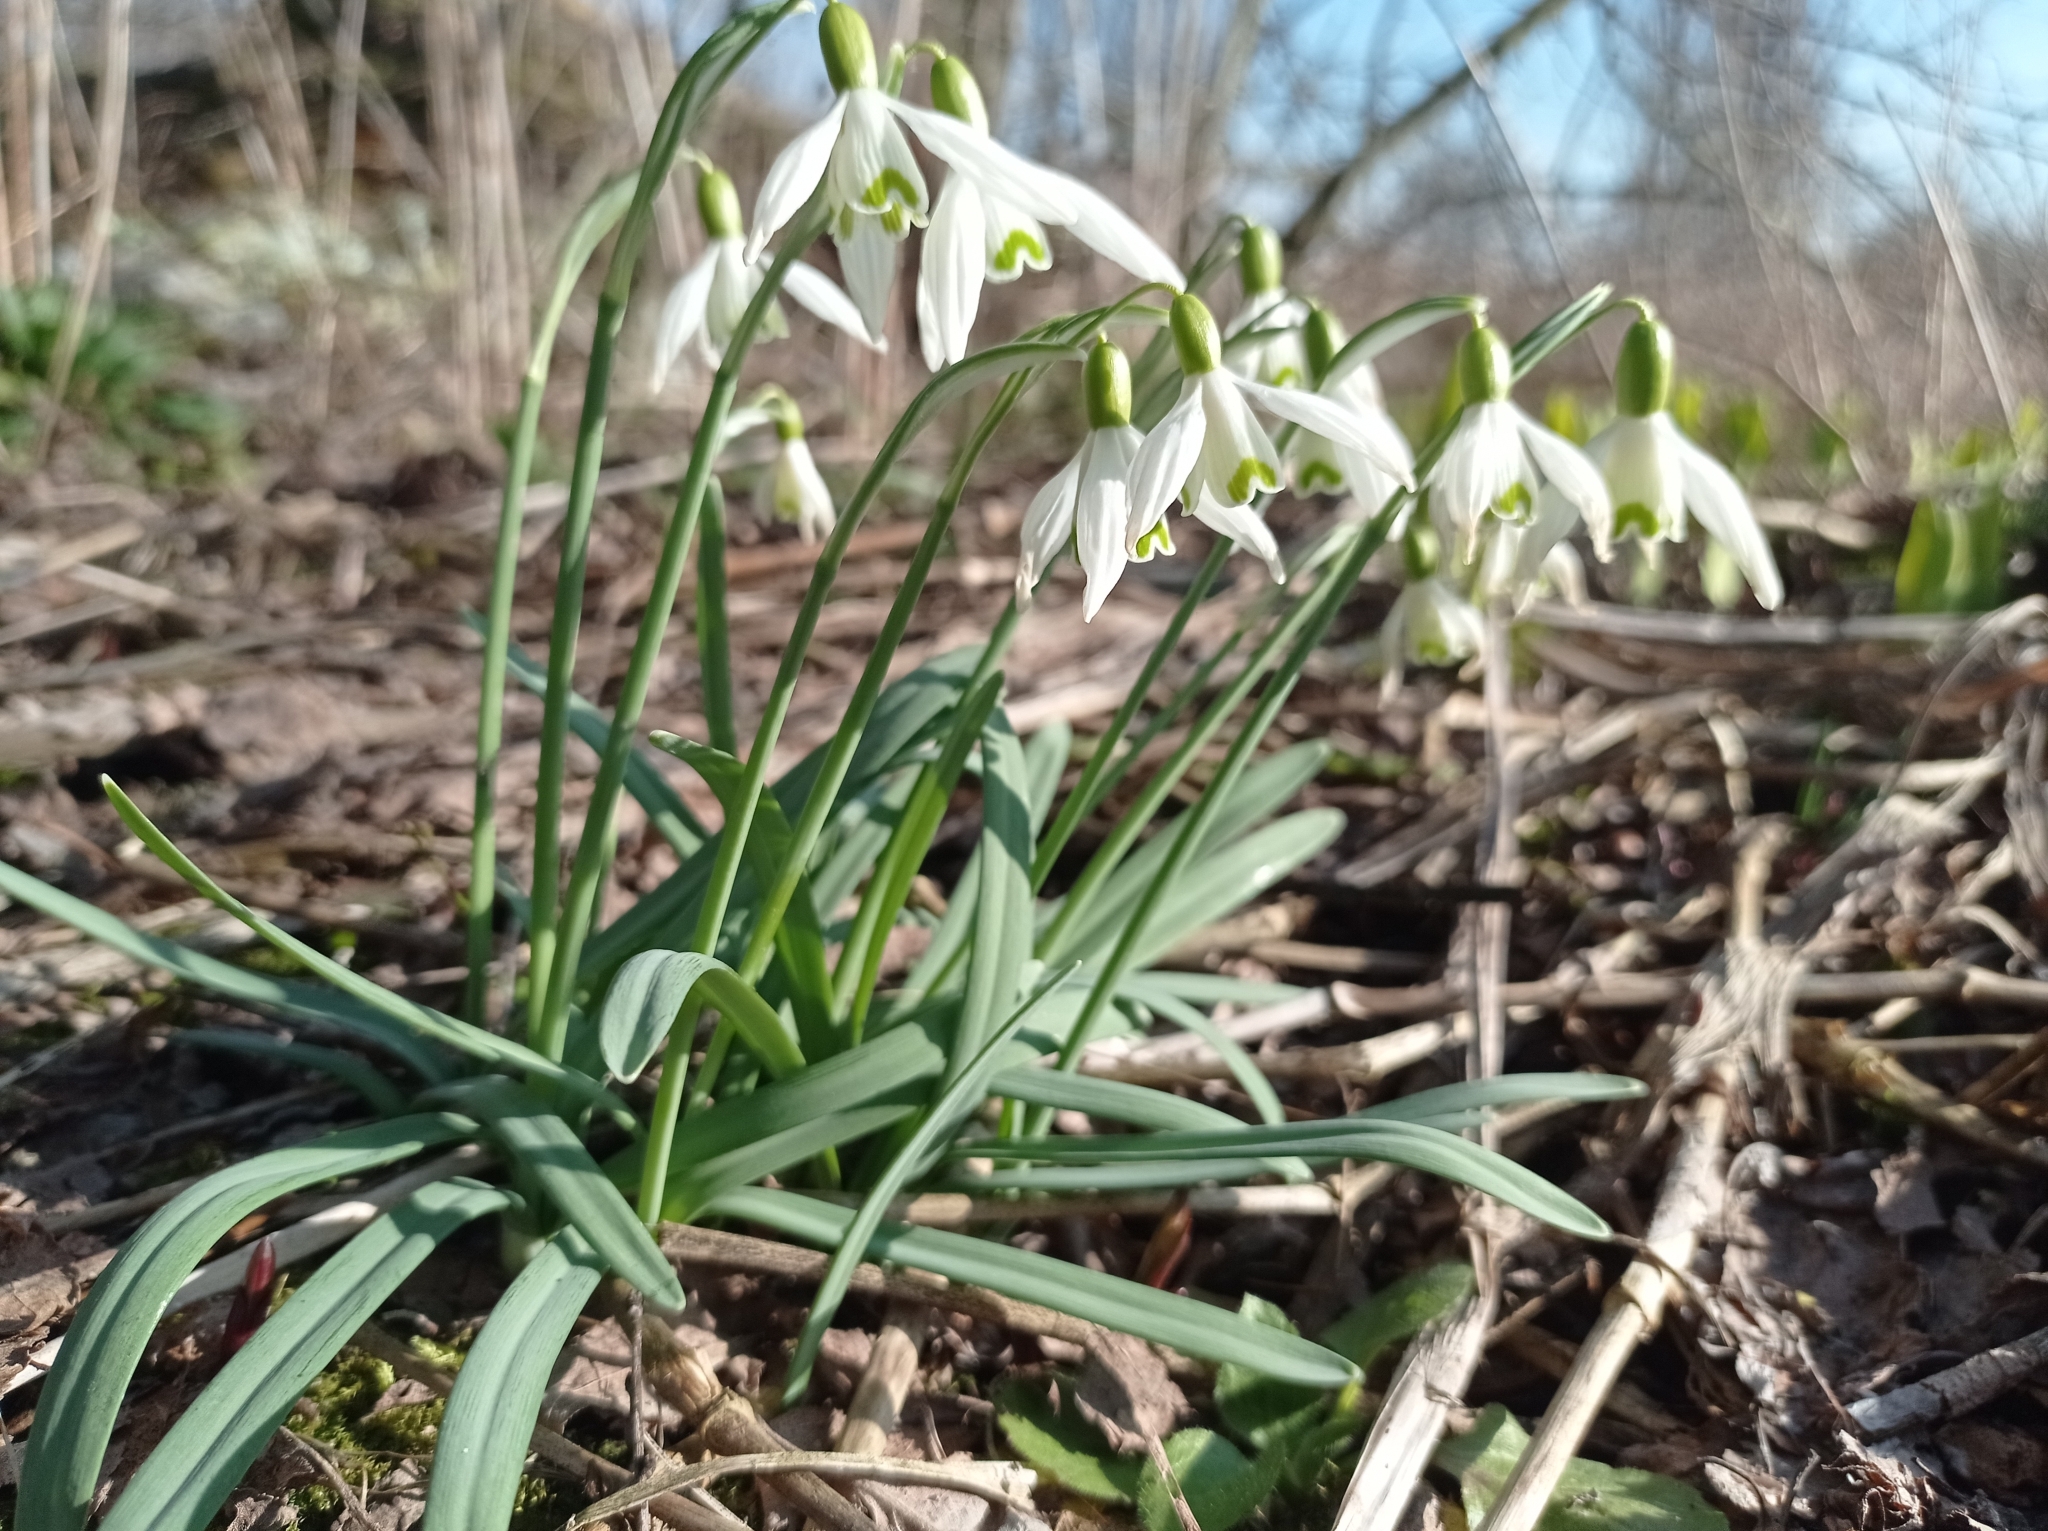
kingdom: Plantae
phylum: Tracheophyta
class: Liliopsida
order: Asparagales
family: Amaryllidaceae
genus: Galanthus
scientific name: Galanthus nivalis
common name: Snowdrop
